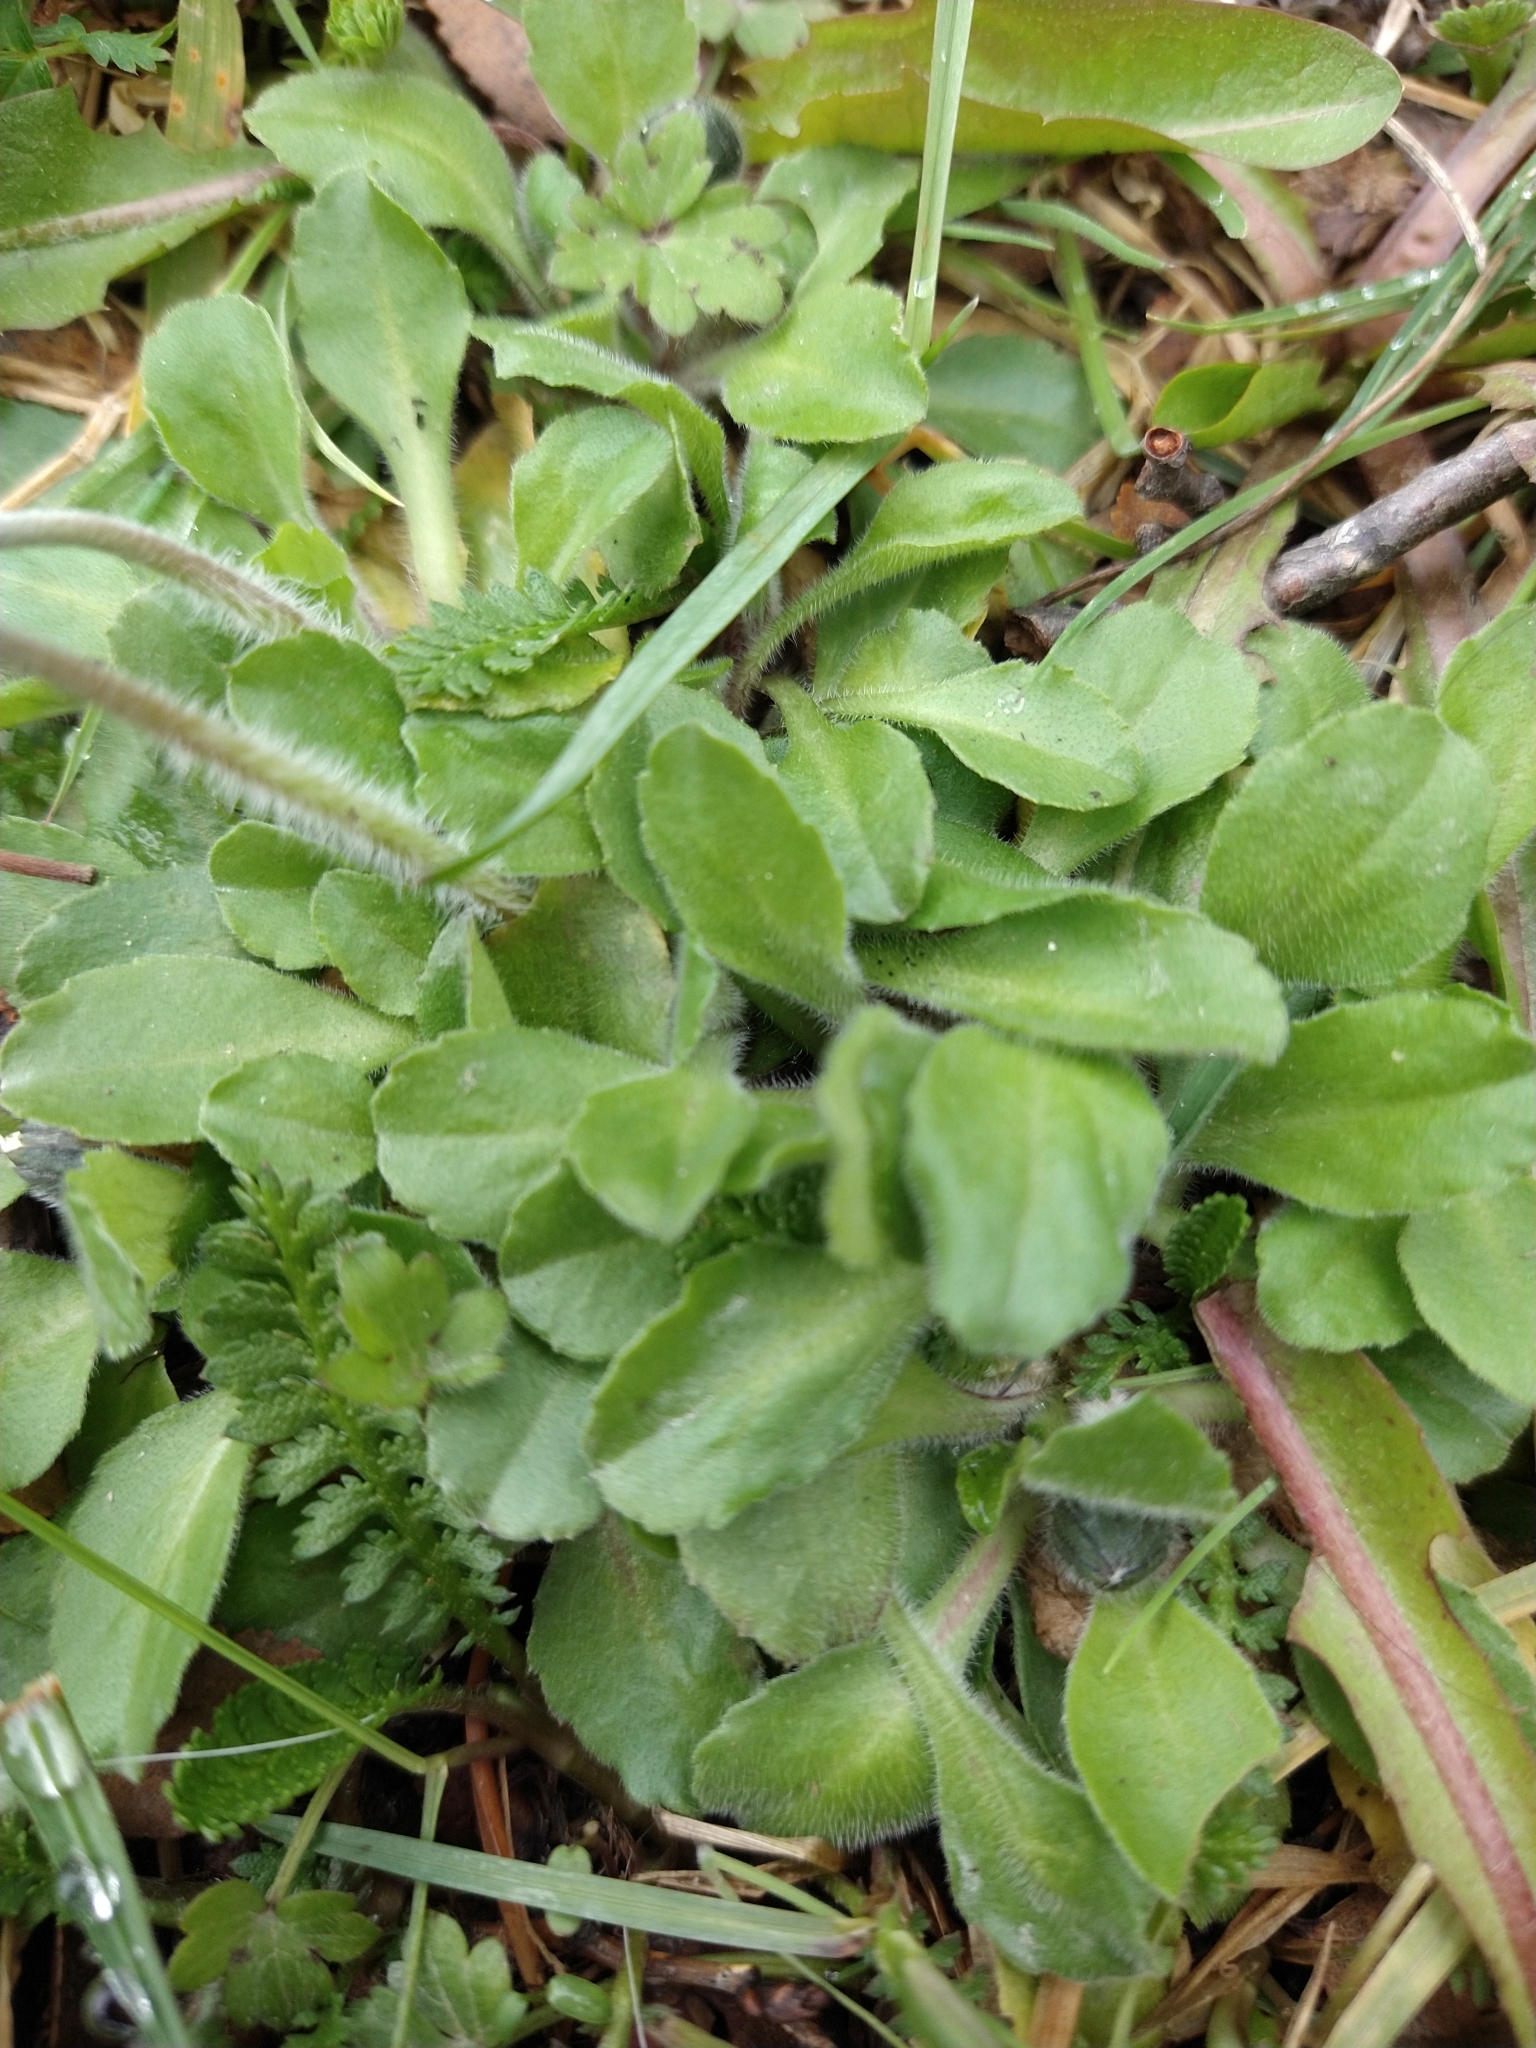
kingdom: Plantae
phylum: Tracheophyta
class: Magnoliopsida
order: Asterales
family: Asteraceae
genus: Bellis
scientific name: Bellis perennis
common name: Lawndaisy
